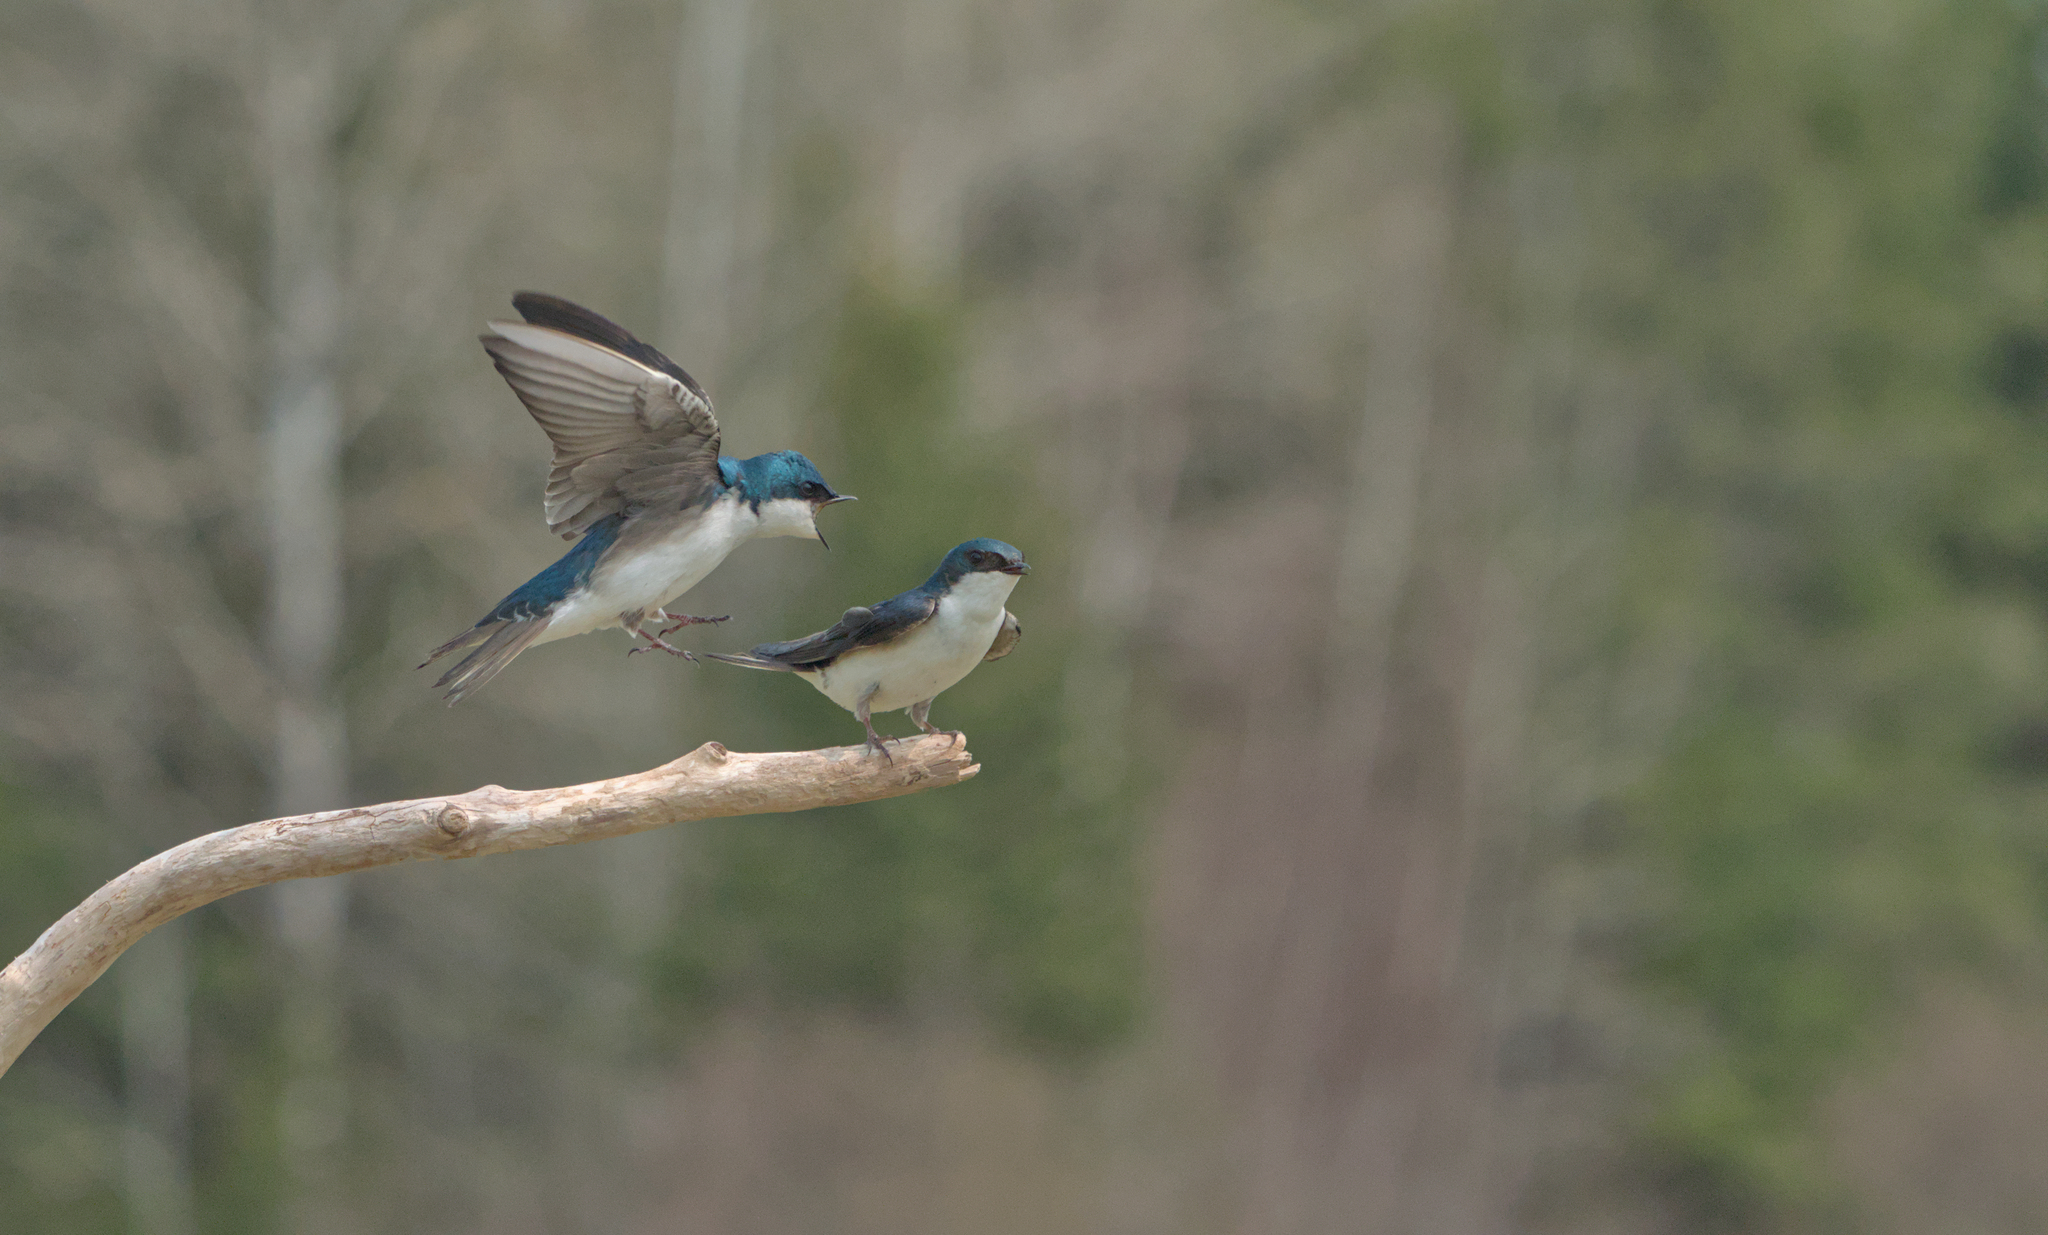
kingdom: Animalia
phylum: Chordata
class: Aves
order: Passeriformes
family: Hirundinidae
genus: Tachycineta
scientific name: Tachycineta bicolor
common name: Tree swallow
